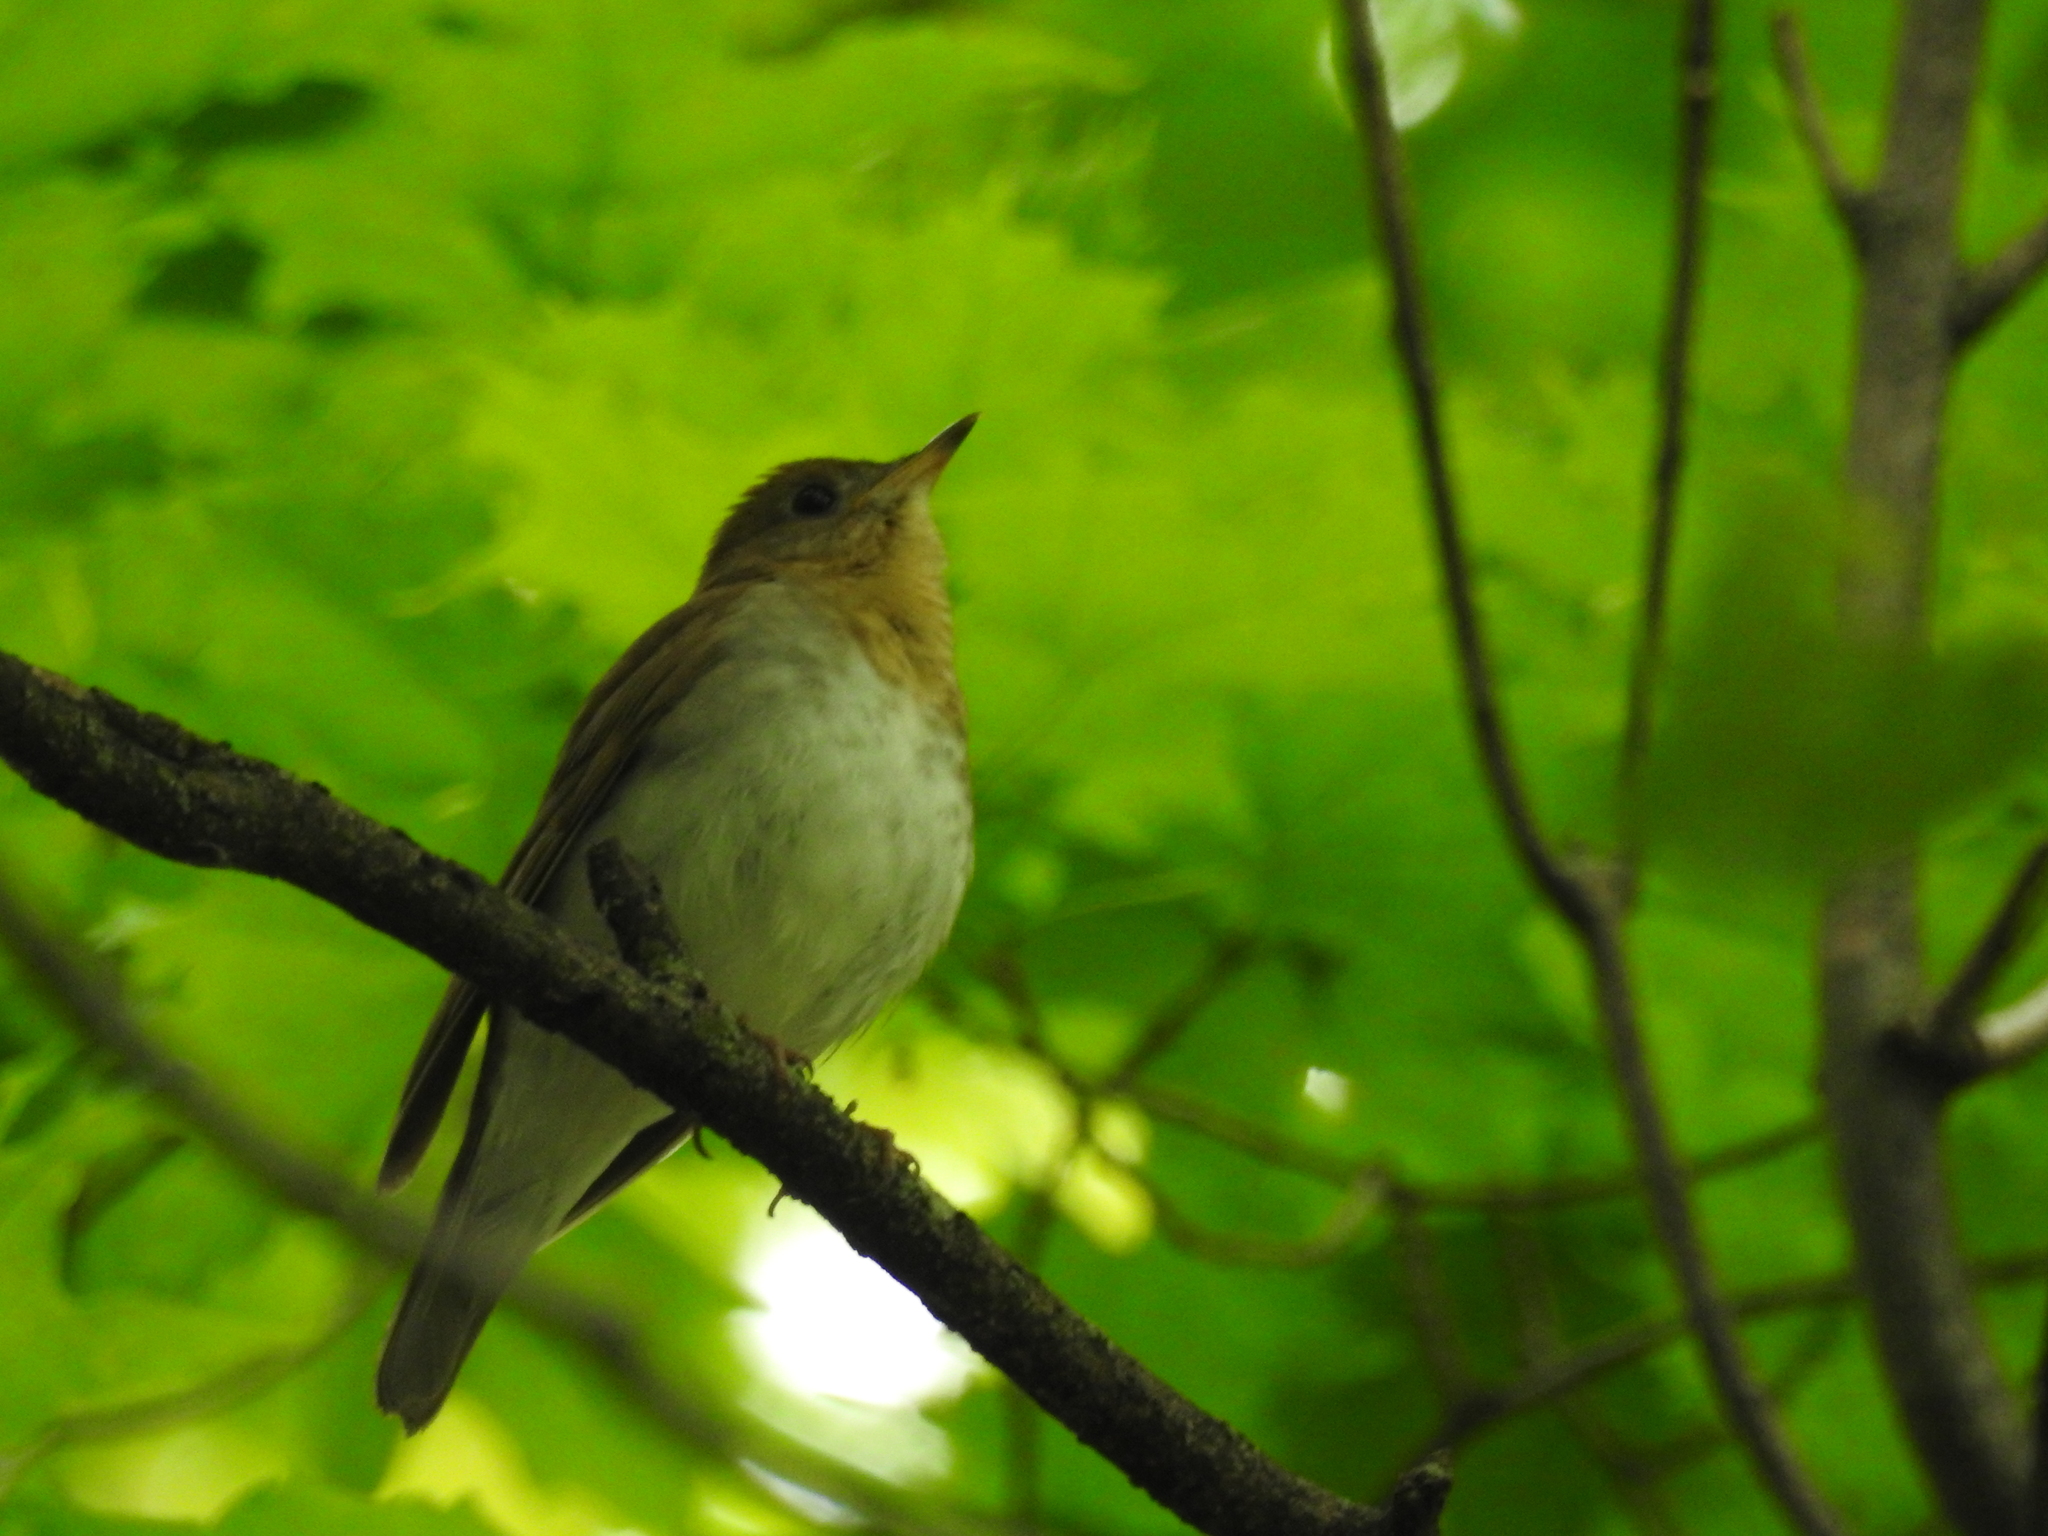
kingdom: Animalia
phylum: Chordata
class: Aves
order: Passeriformes
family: Turdidae
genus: Catharus
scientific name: Catharus fuscescens
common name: Veery
